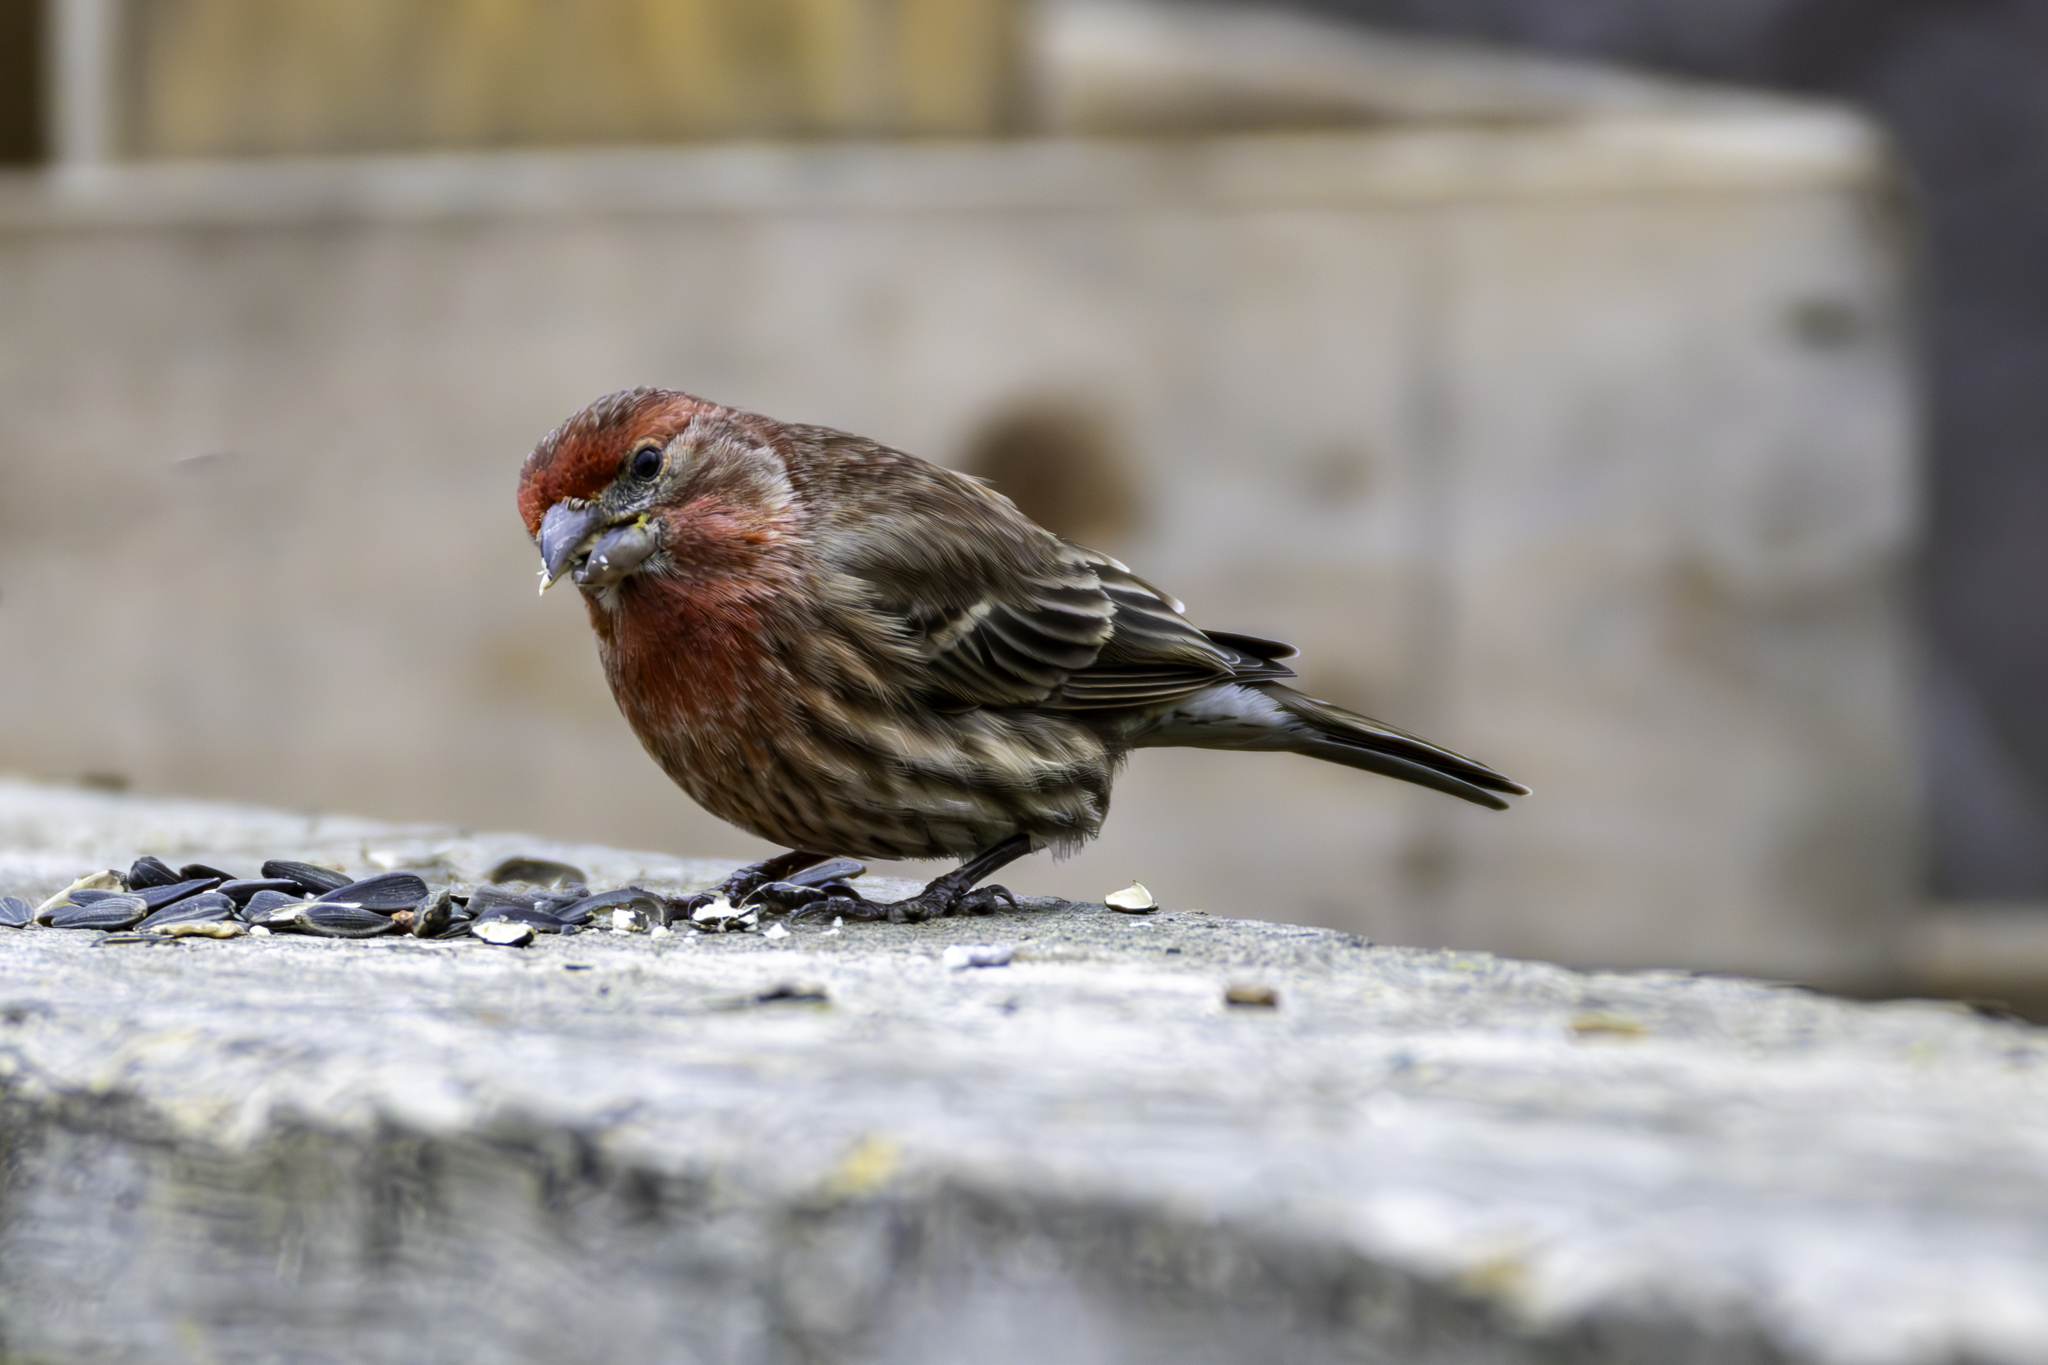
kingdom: Animalia
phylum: Chordata
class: Aves
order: Passeriformes
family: Fringillidae
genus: Haemorhous
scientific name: Haemorhous mexicanus
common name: House finch
